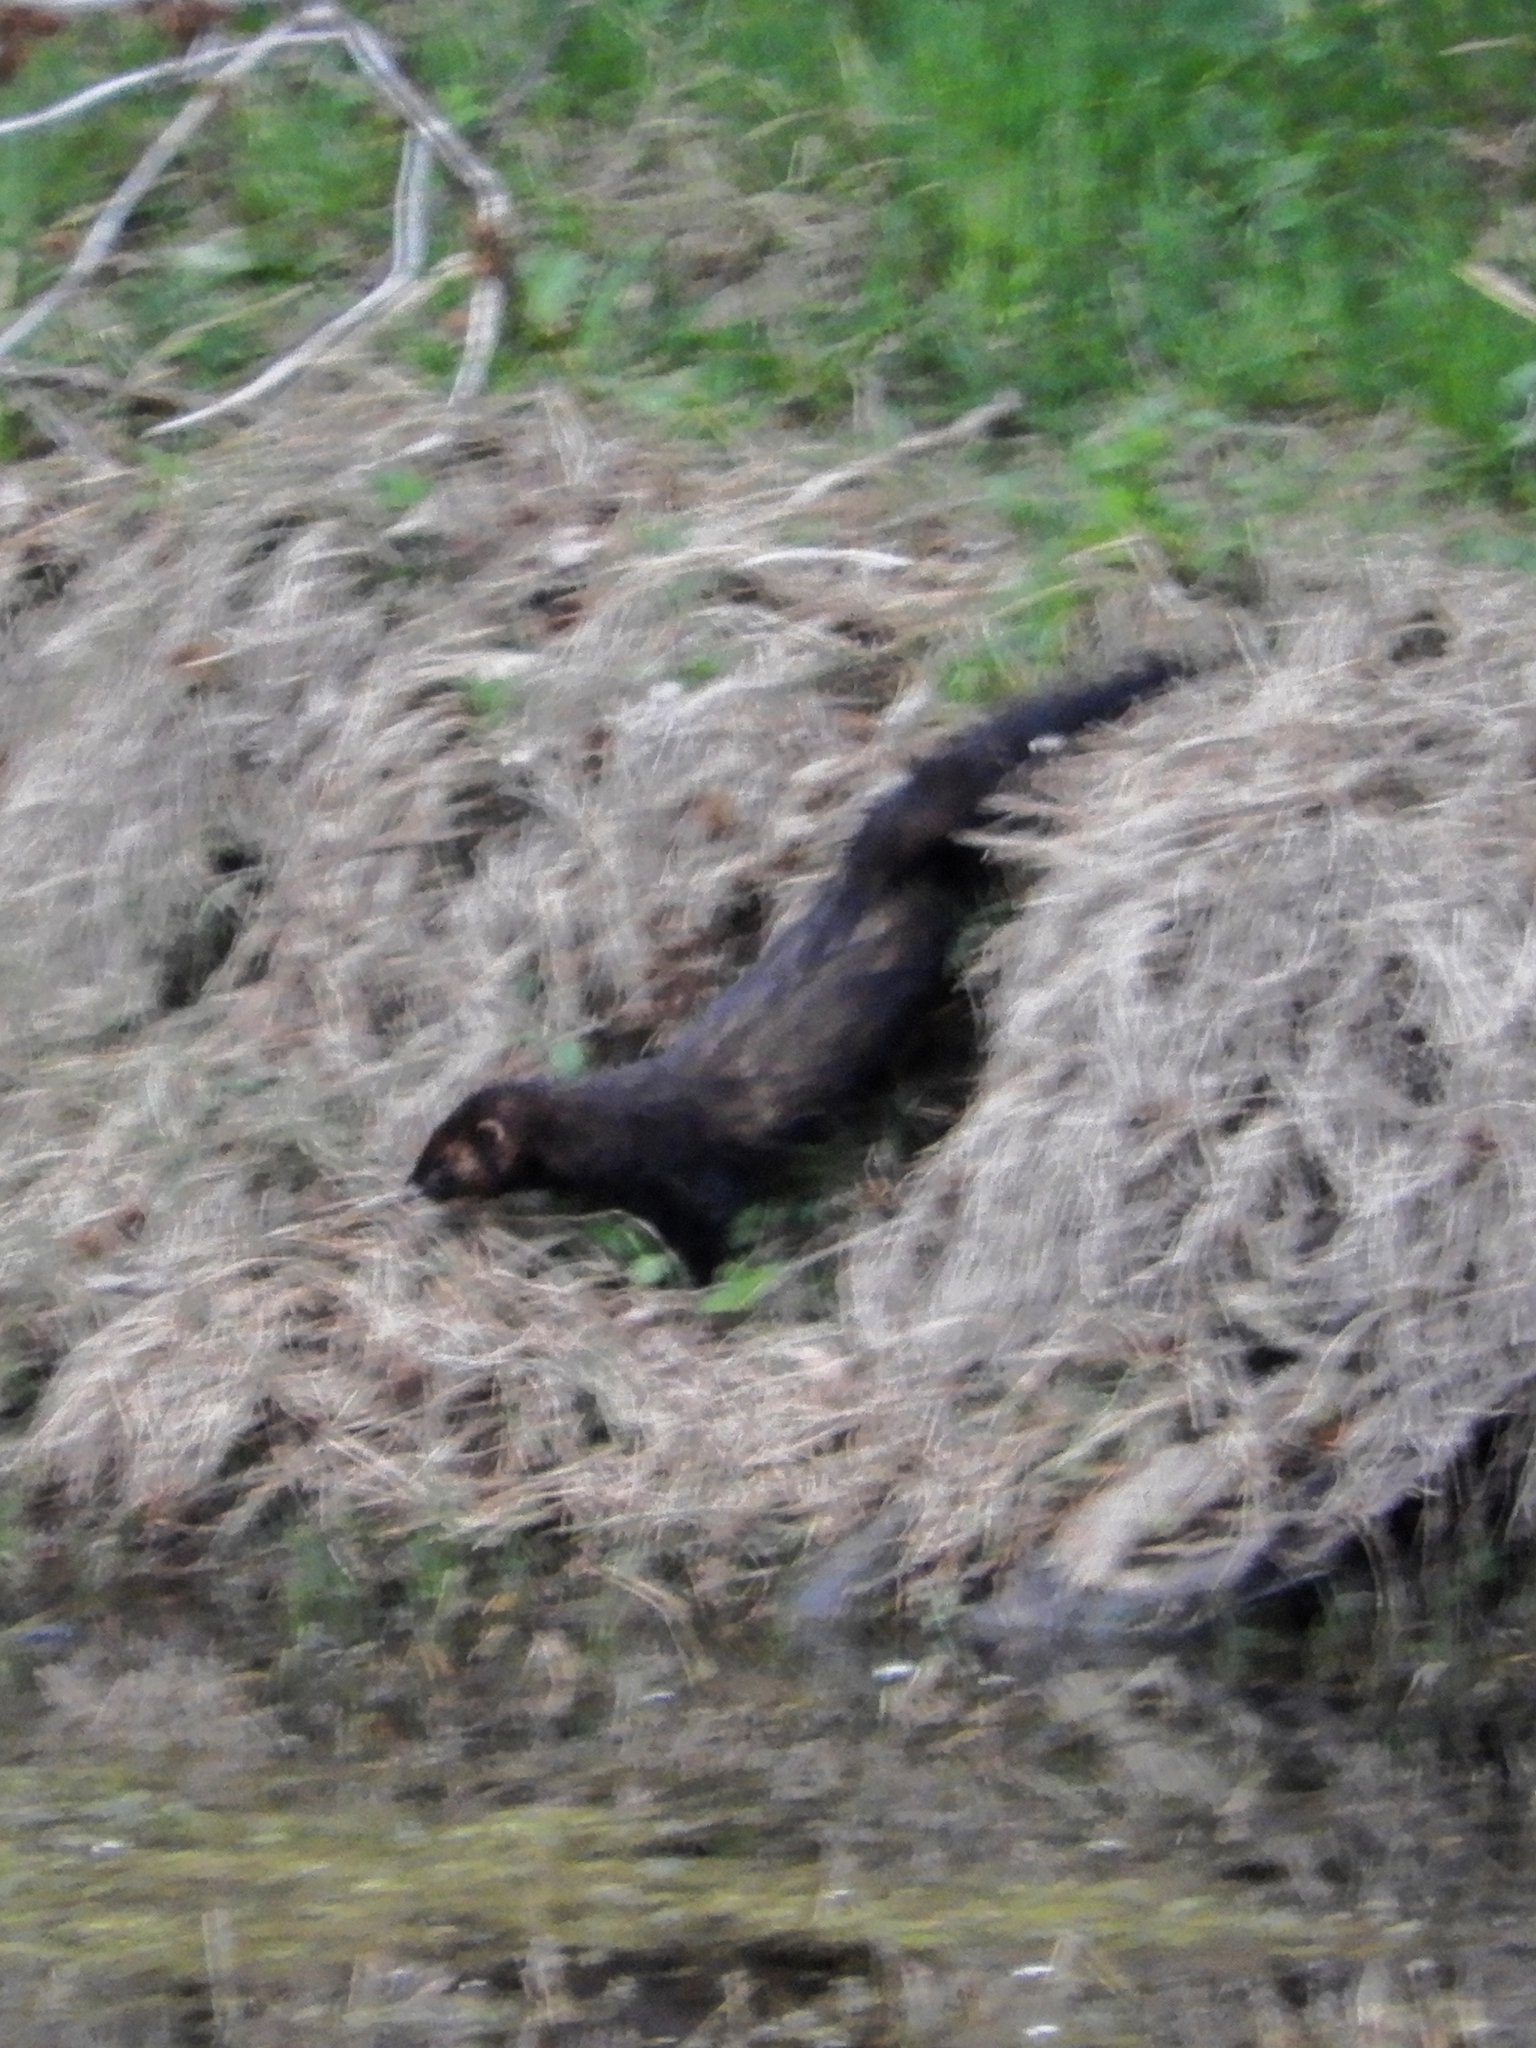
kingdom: Animalia
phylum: Chordata
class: Mammalia
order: Carnivora
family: Mustelidae
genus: Mustela
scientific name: Mustela putorius
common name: European polecat
